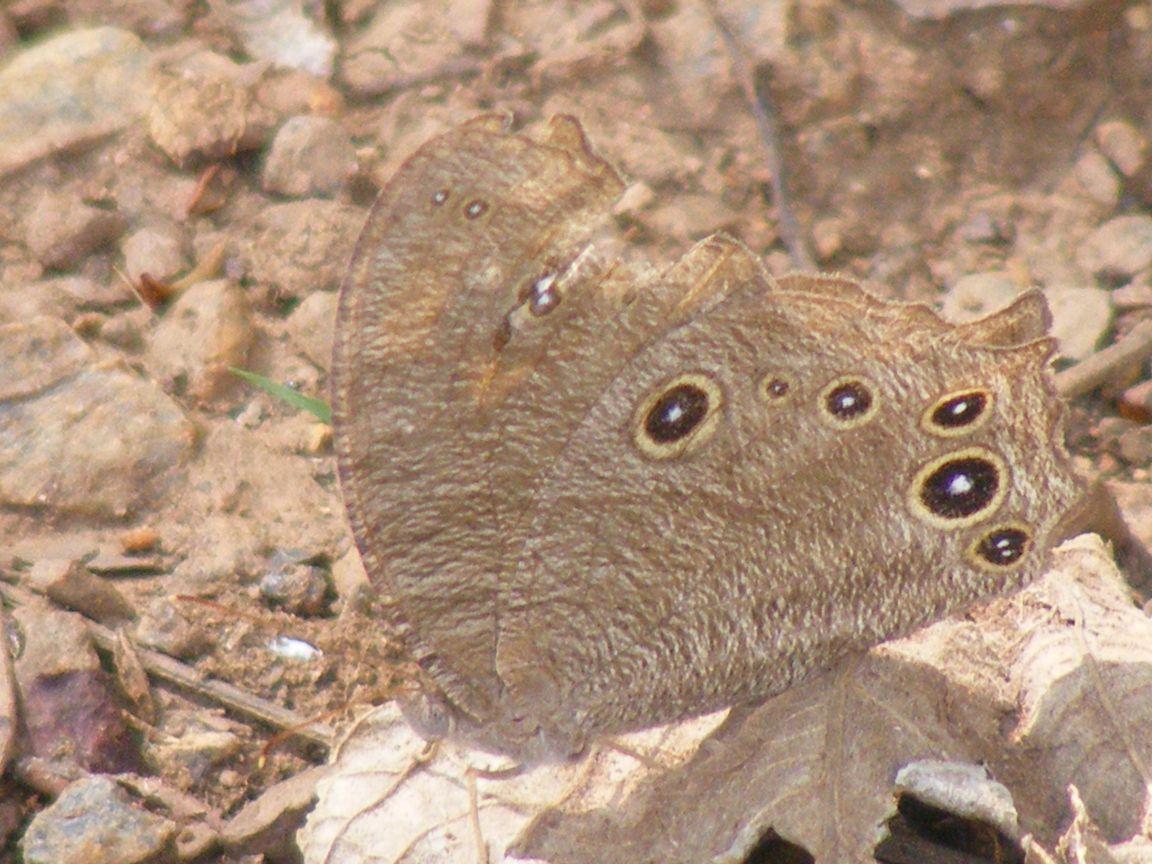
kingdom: Animalia
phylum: Arthropoda
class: Insecta
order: Lepidoptera
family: Nymphalidae
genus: Melanitis
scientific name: Melanitis leda
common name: Twilight brown
